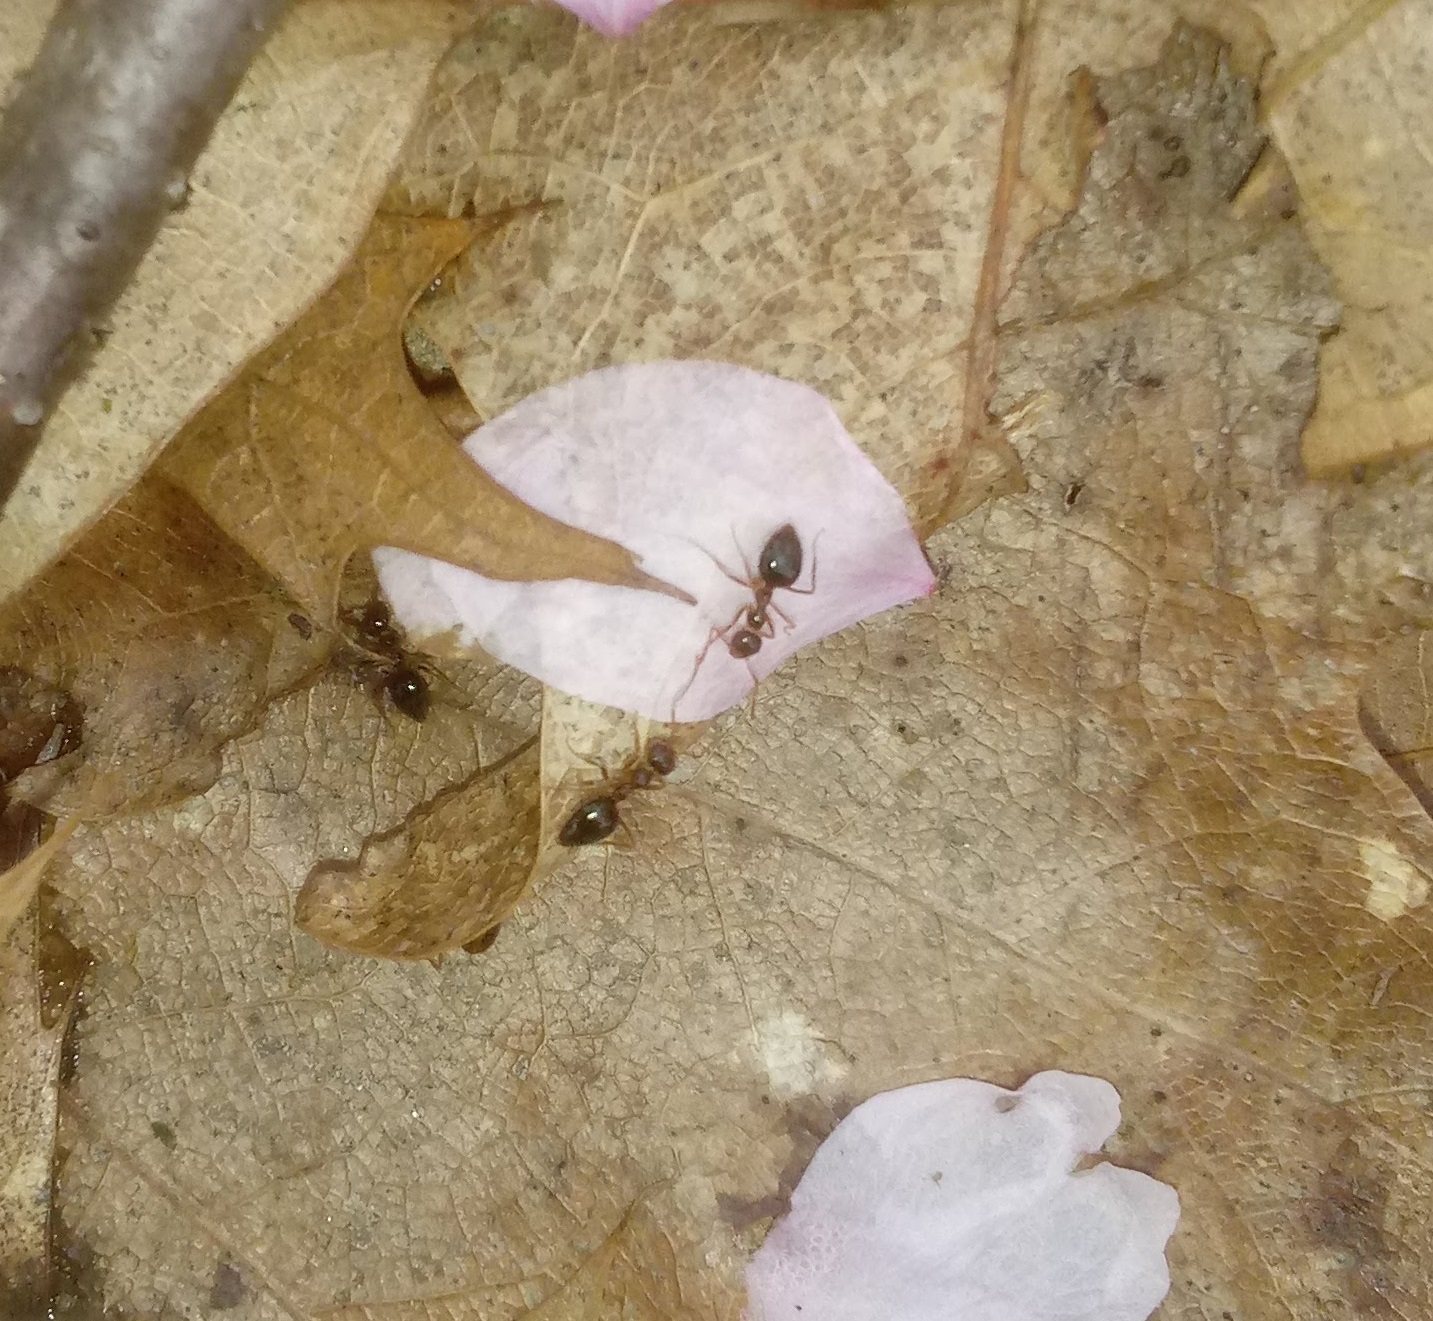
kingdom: Animalia
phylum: Arthropoda
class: Insecta
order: Hymenoptera
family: Formicidae
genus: Prenolepis
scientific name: Prenolepis imparis
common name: Small honey ant
